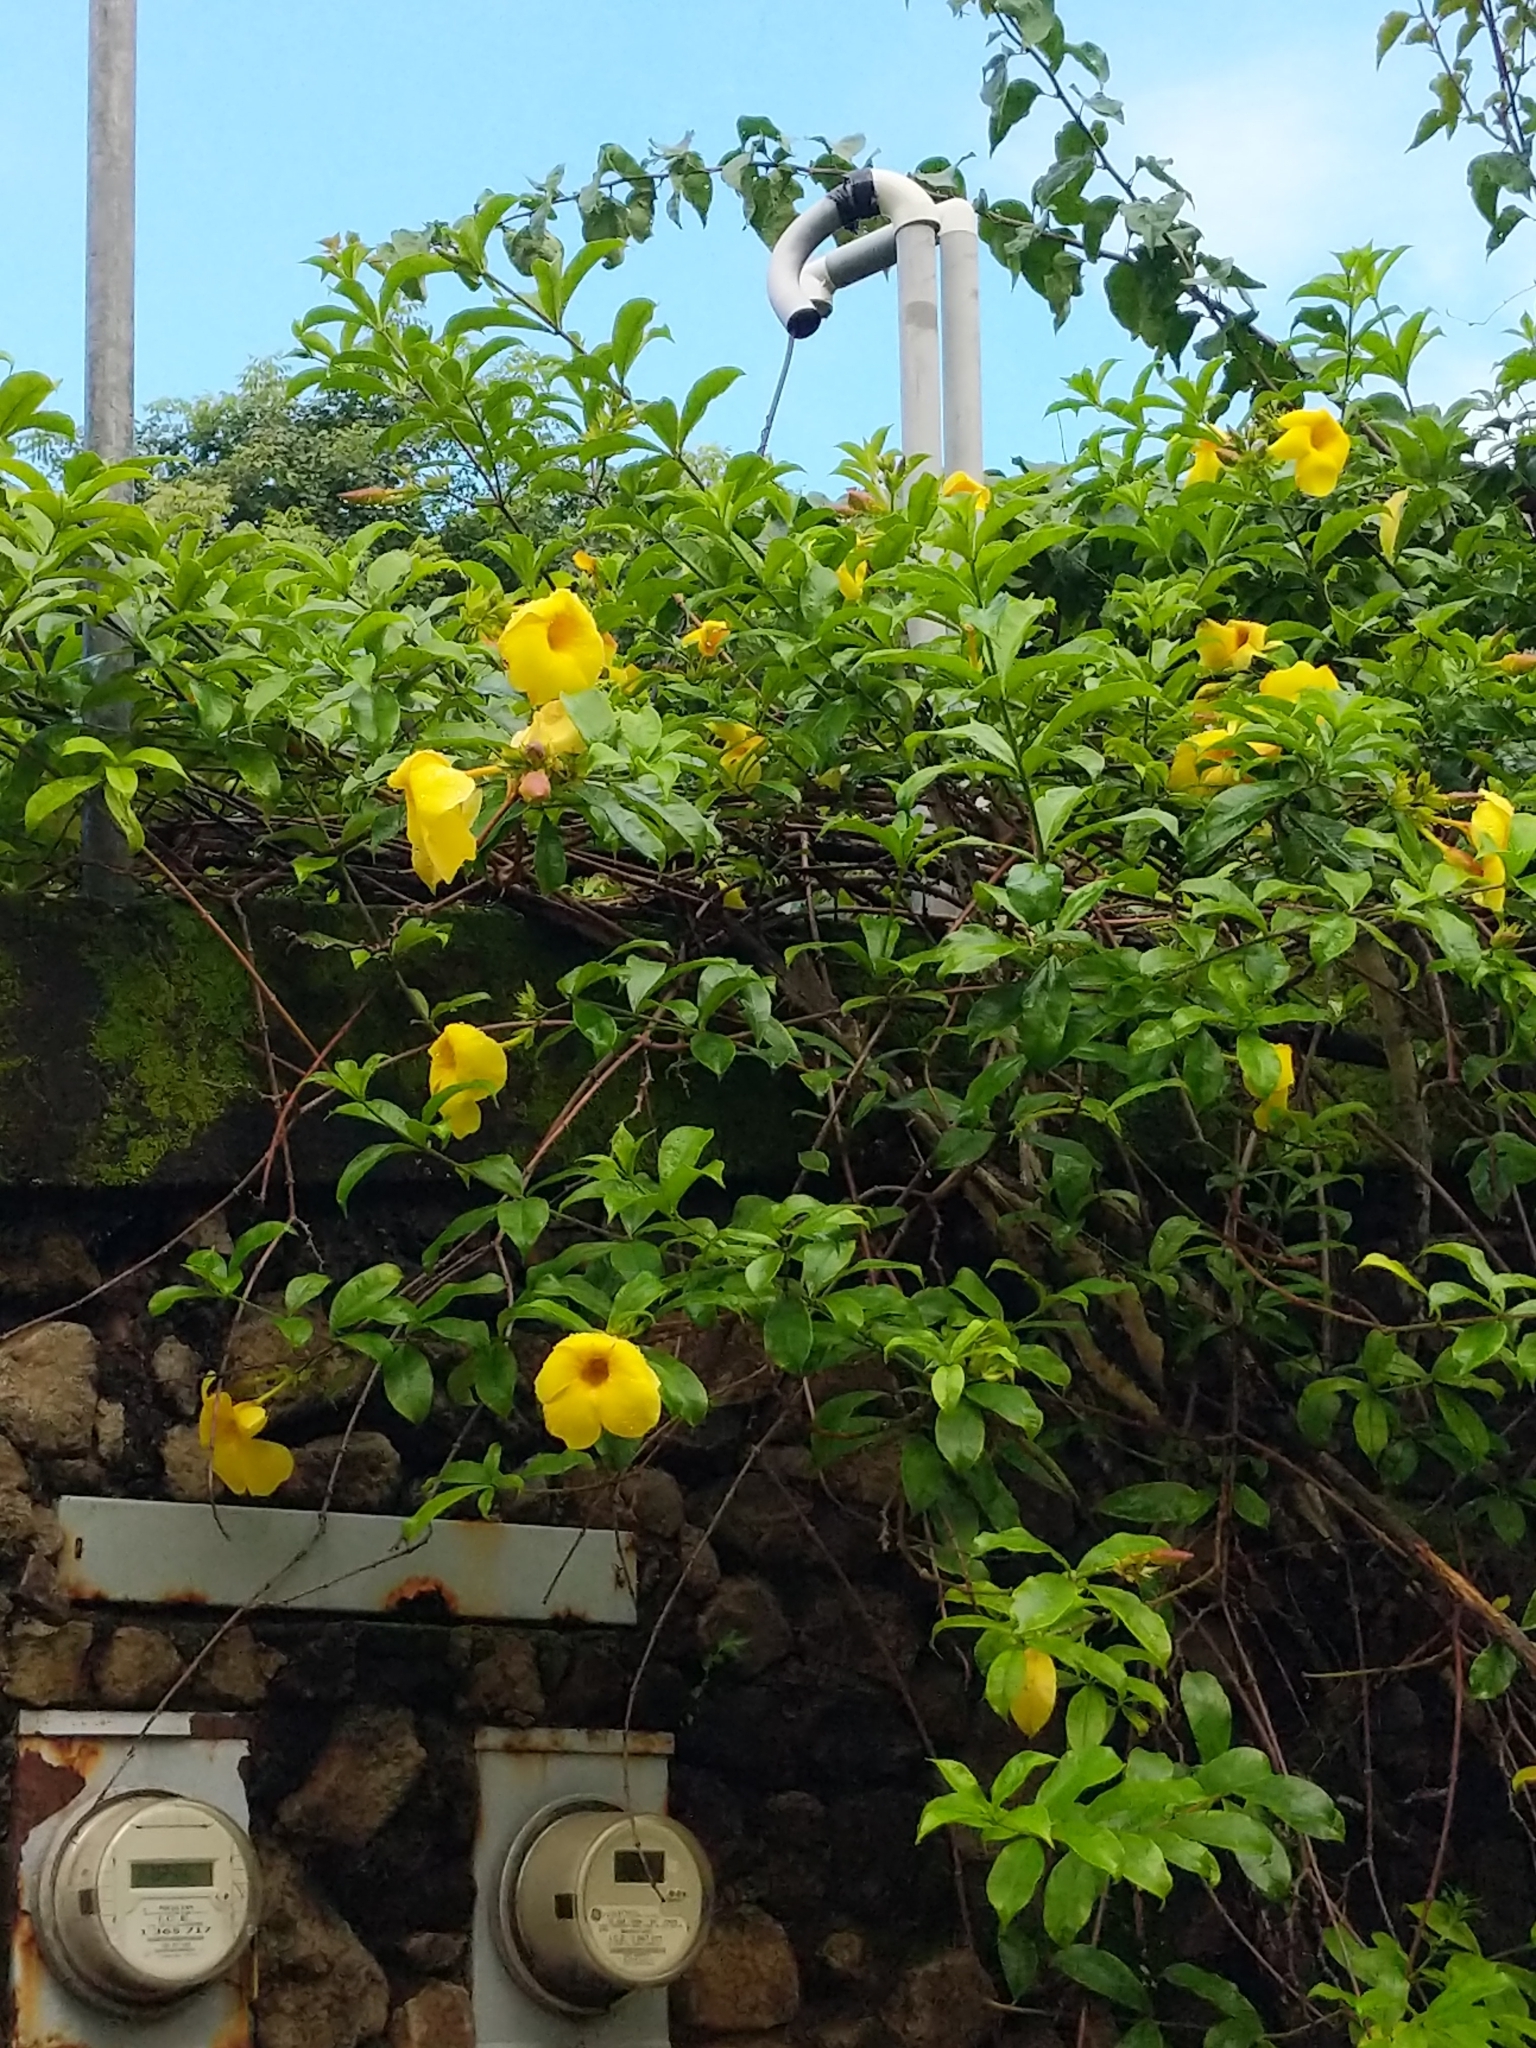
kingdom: Plantae
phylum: Tracheophyta
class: Magnoliopsida
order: Gentianales
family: Apocynaceae
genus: Allamanda
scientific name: Allamanda cathartica
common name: Golden trumpet
